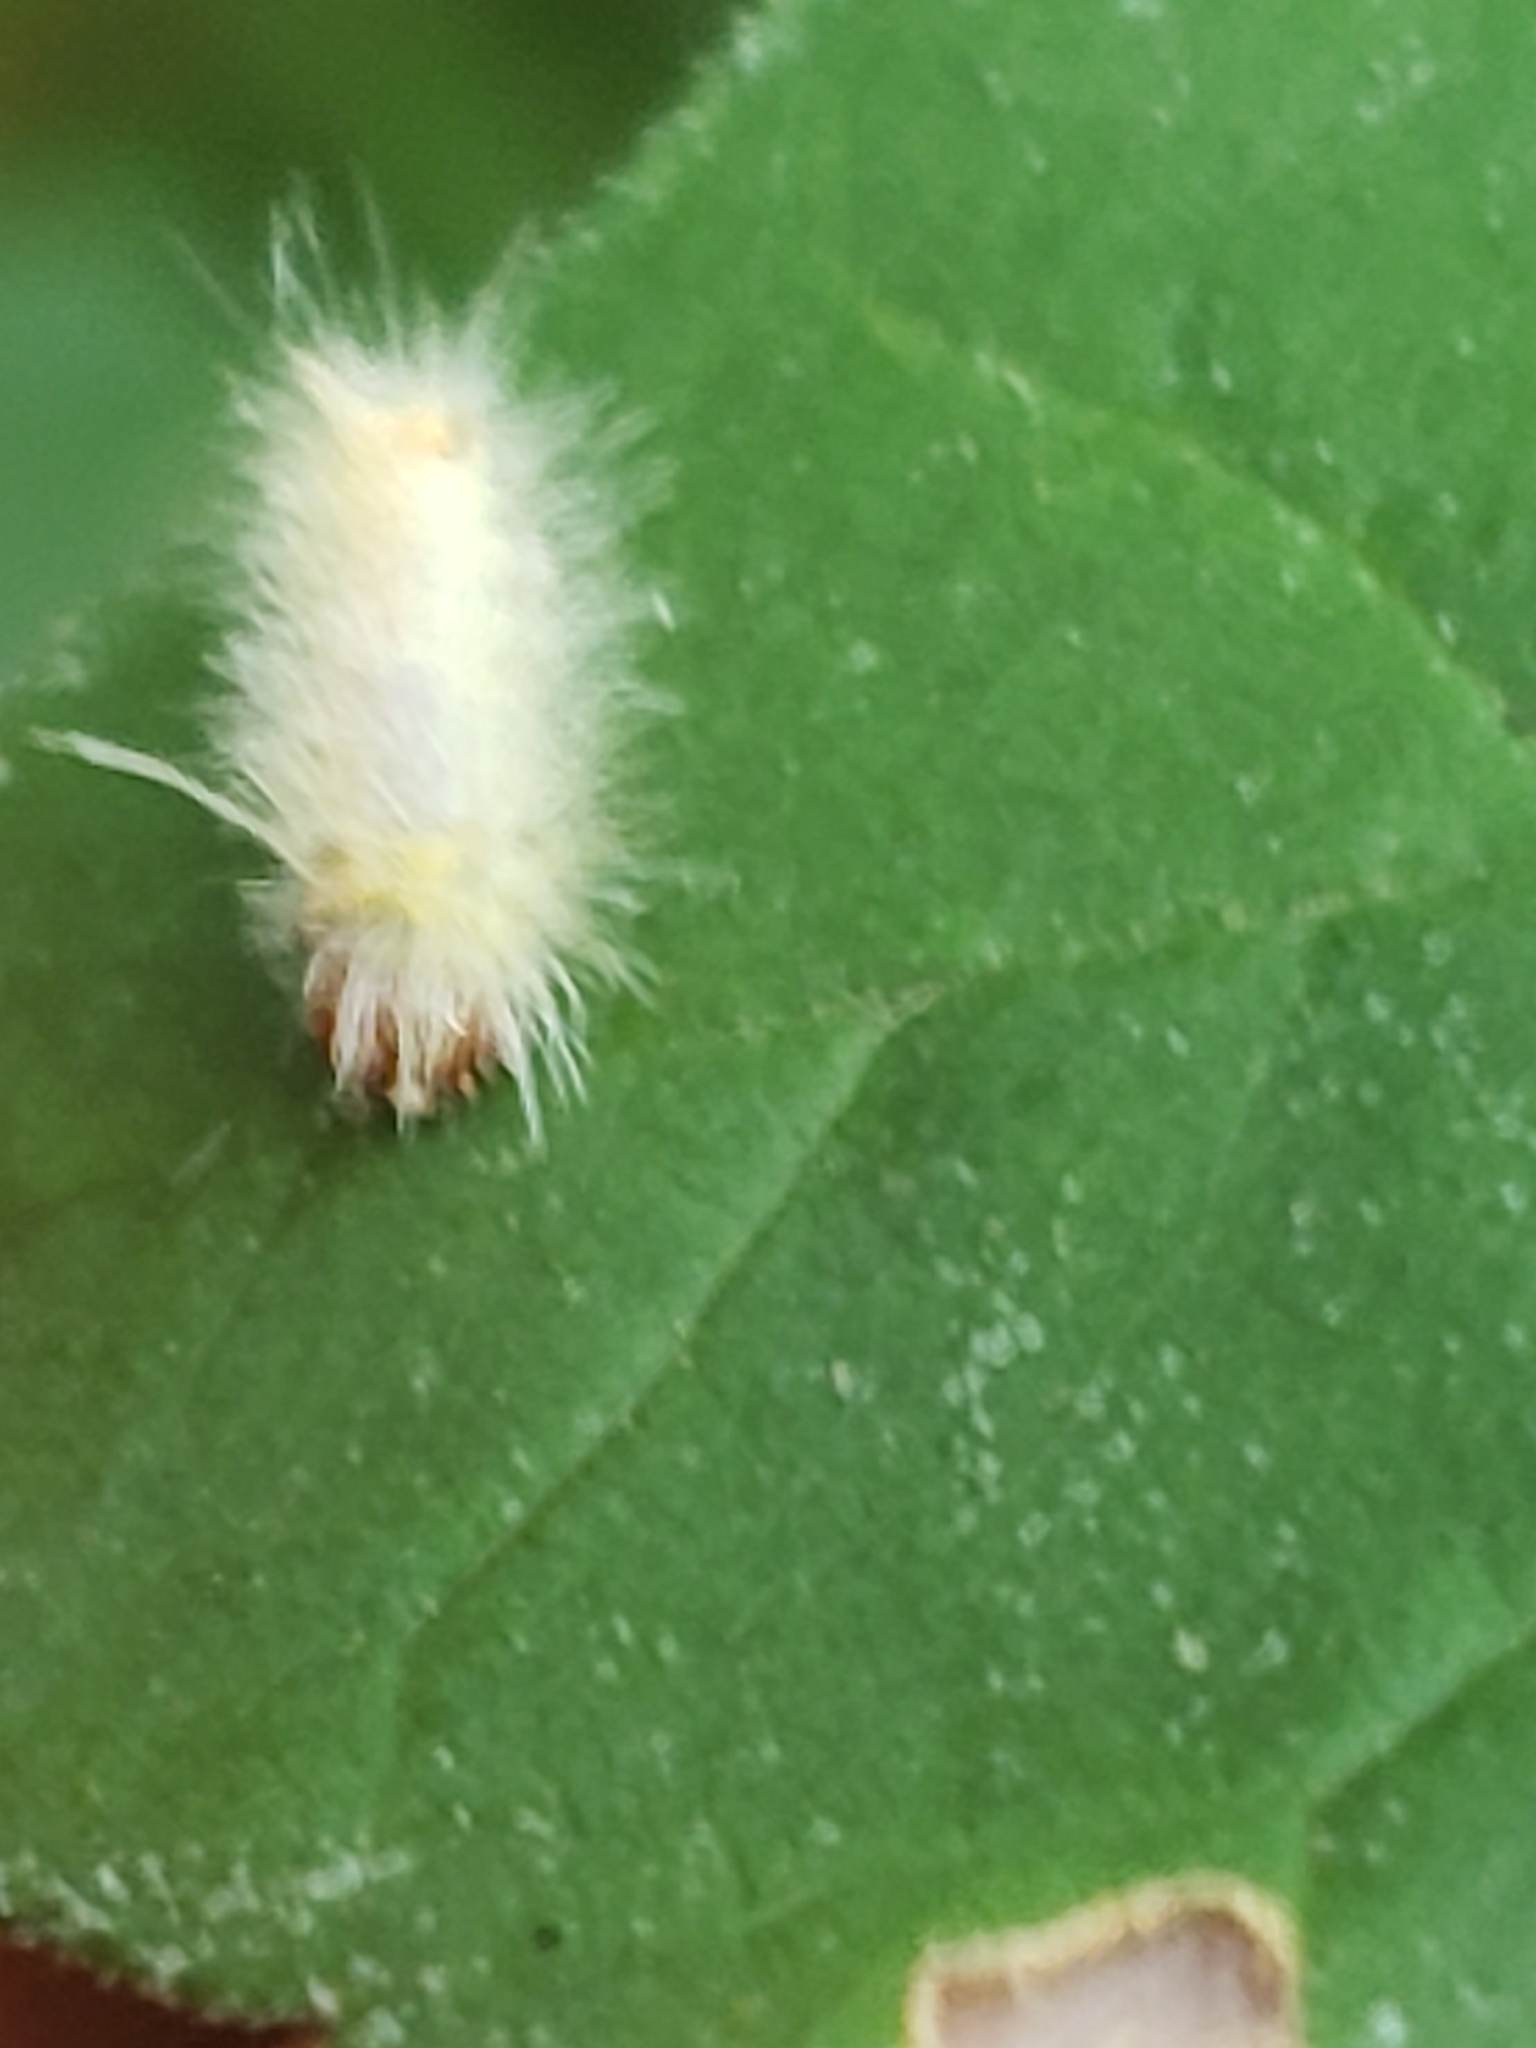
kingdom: Animalia
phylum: Arthropoda
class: Insecta
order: Lepidoptera
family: Erebidae
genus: Halysidota
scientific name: Halysidota harrisii
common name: Sycamore tussock moth
